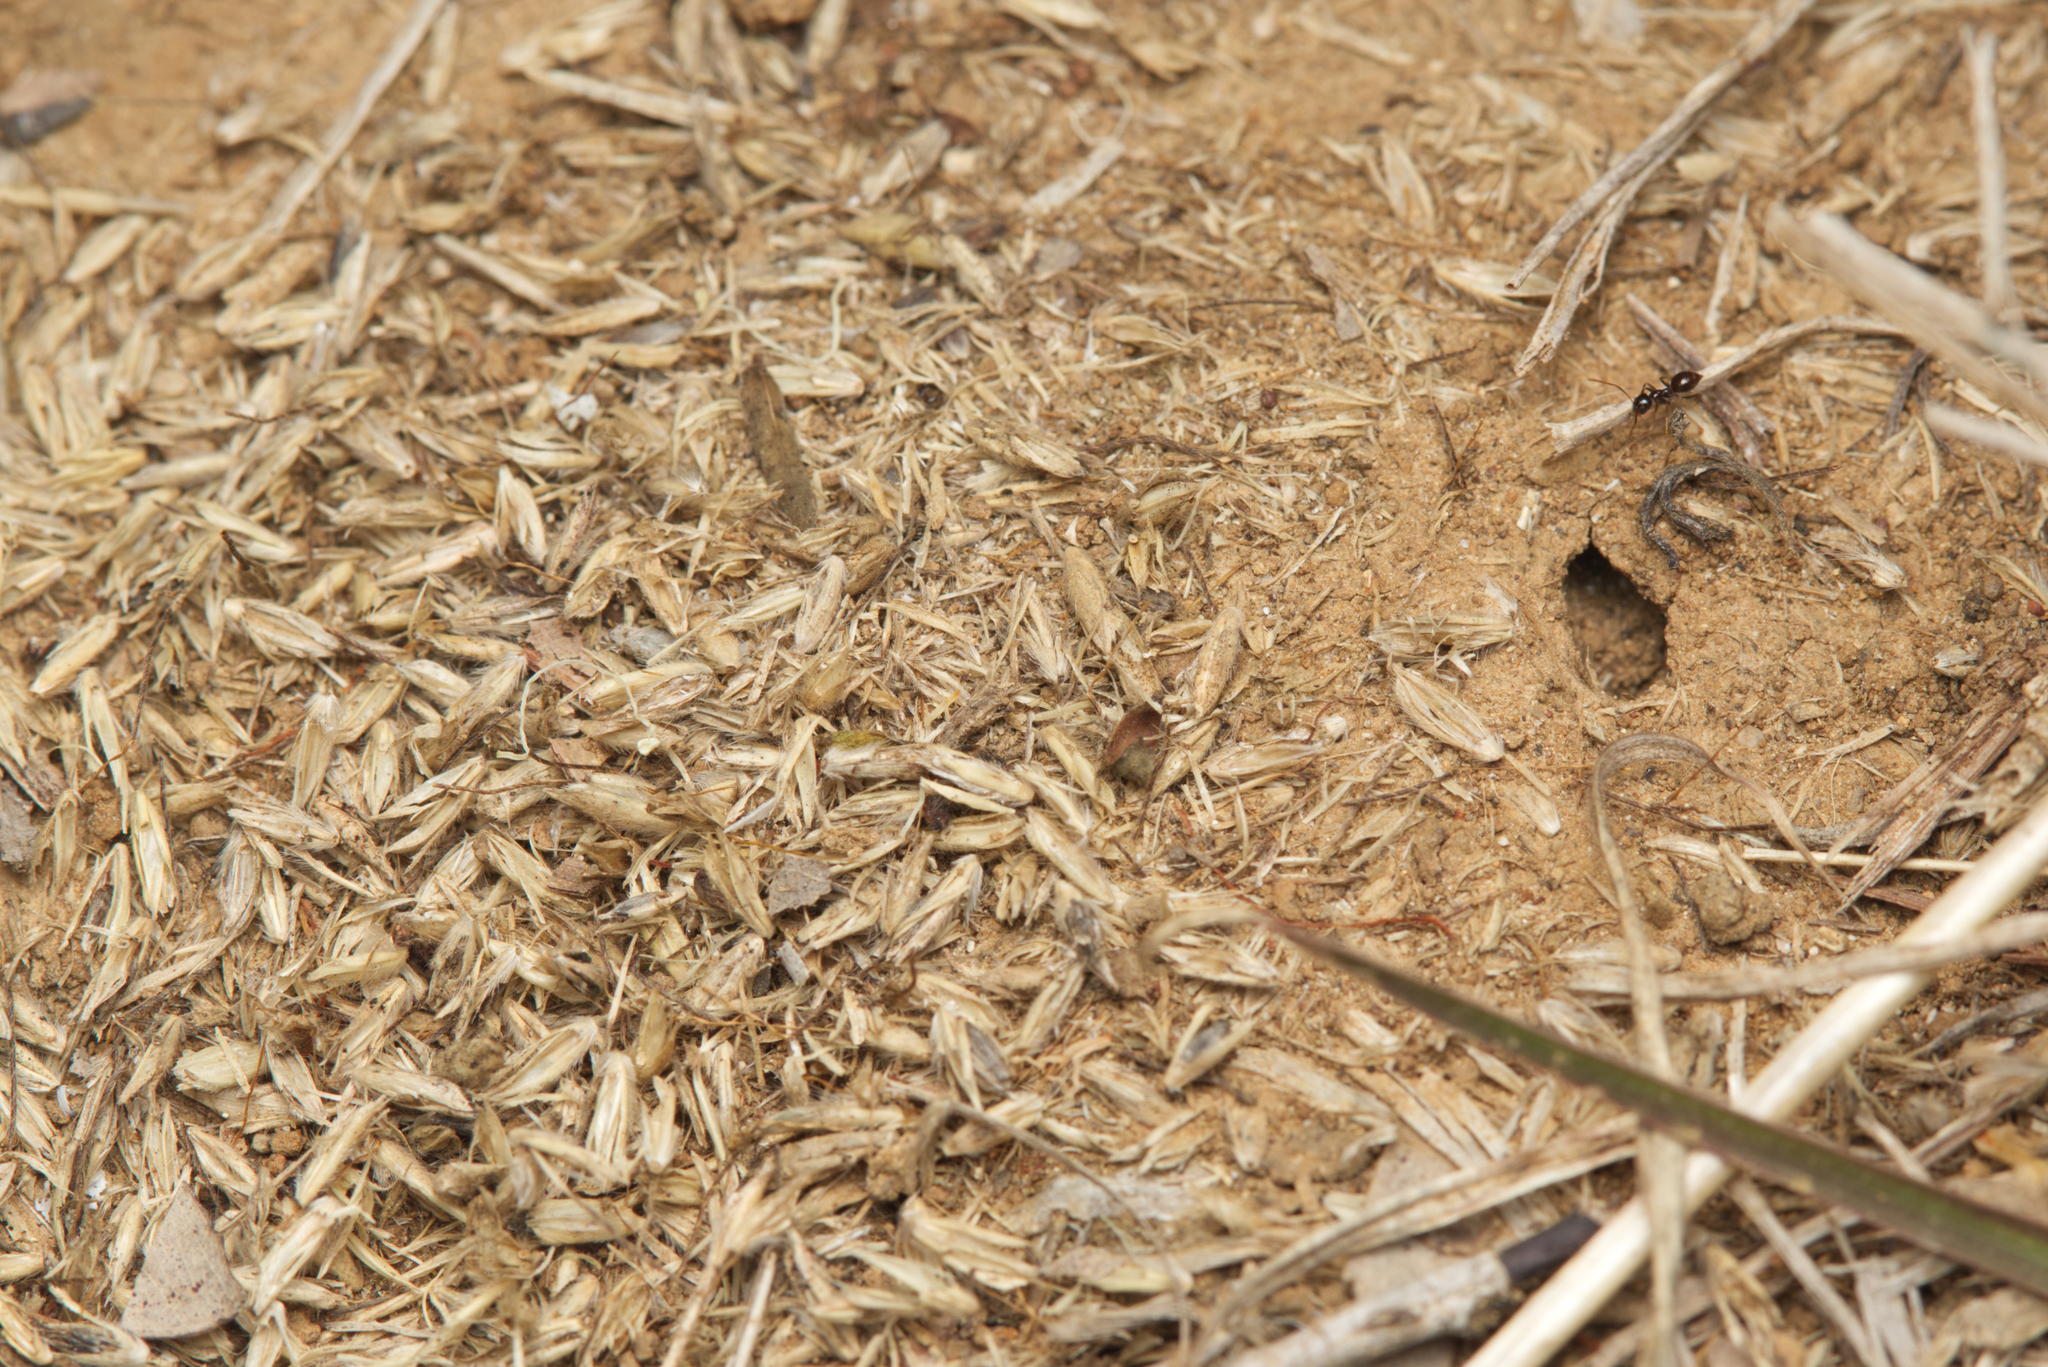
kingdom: Animalia
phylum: Arthropoda
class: Insecta
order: Hymenoptera
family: Formicidae
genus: Meranoplus
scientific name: Meranoplus wilsoni
